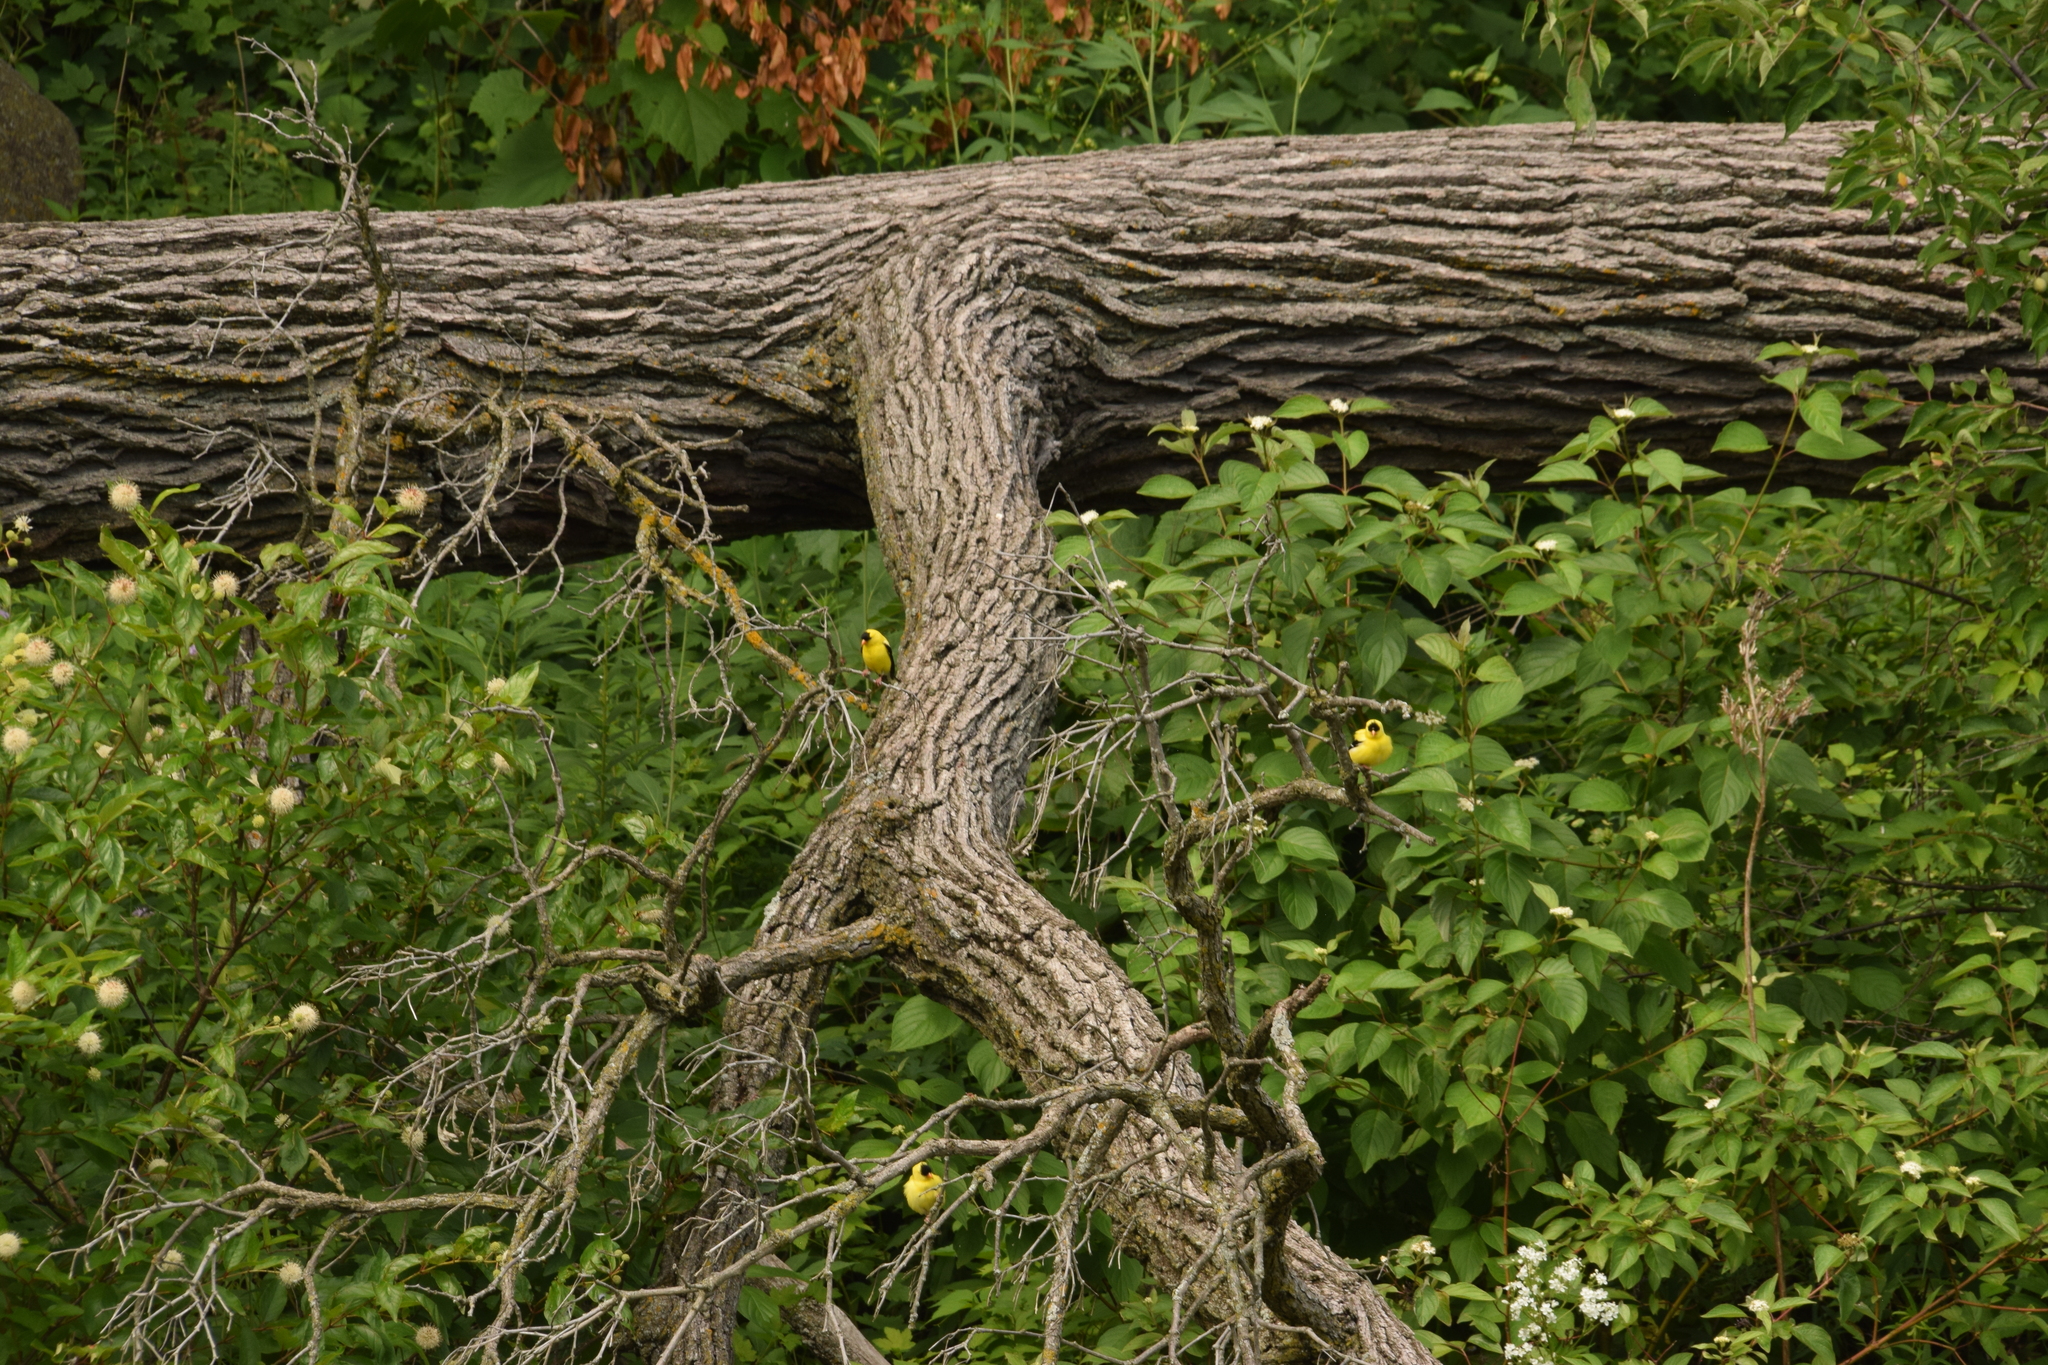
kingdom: Animalia
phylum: Chordata
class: Aves
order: Passeriformes
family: Fringillidae
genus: Spinus
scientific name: Spinus tristis
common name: American goldfinch
